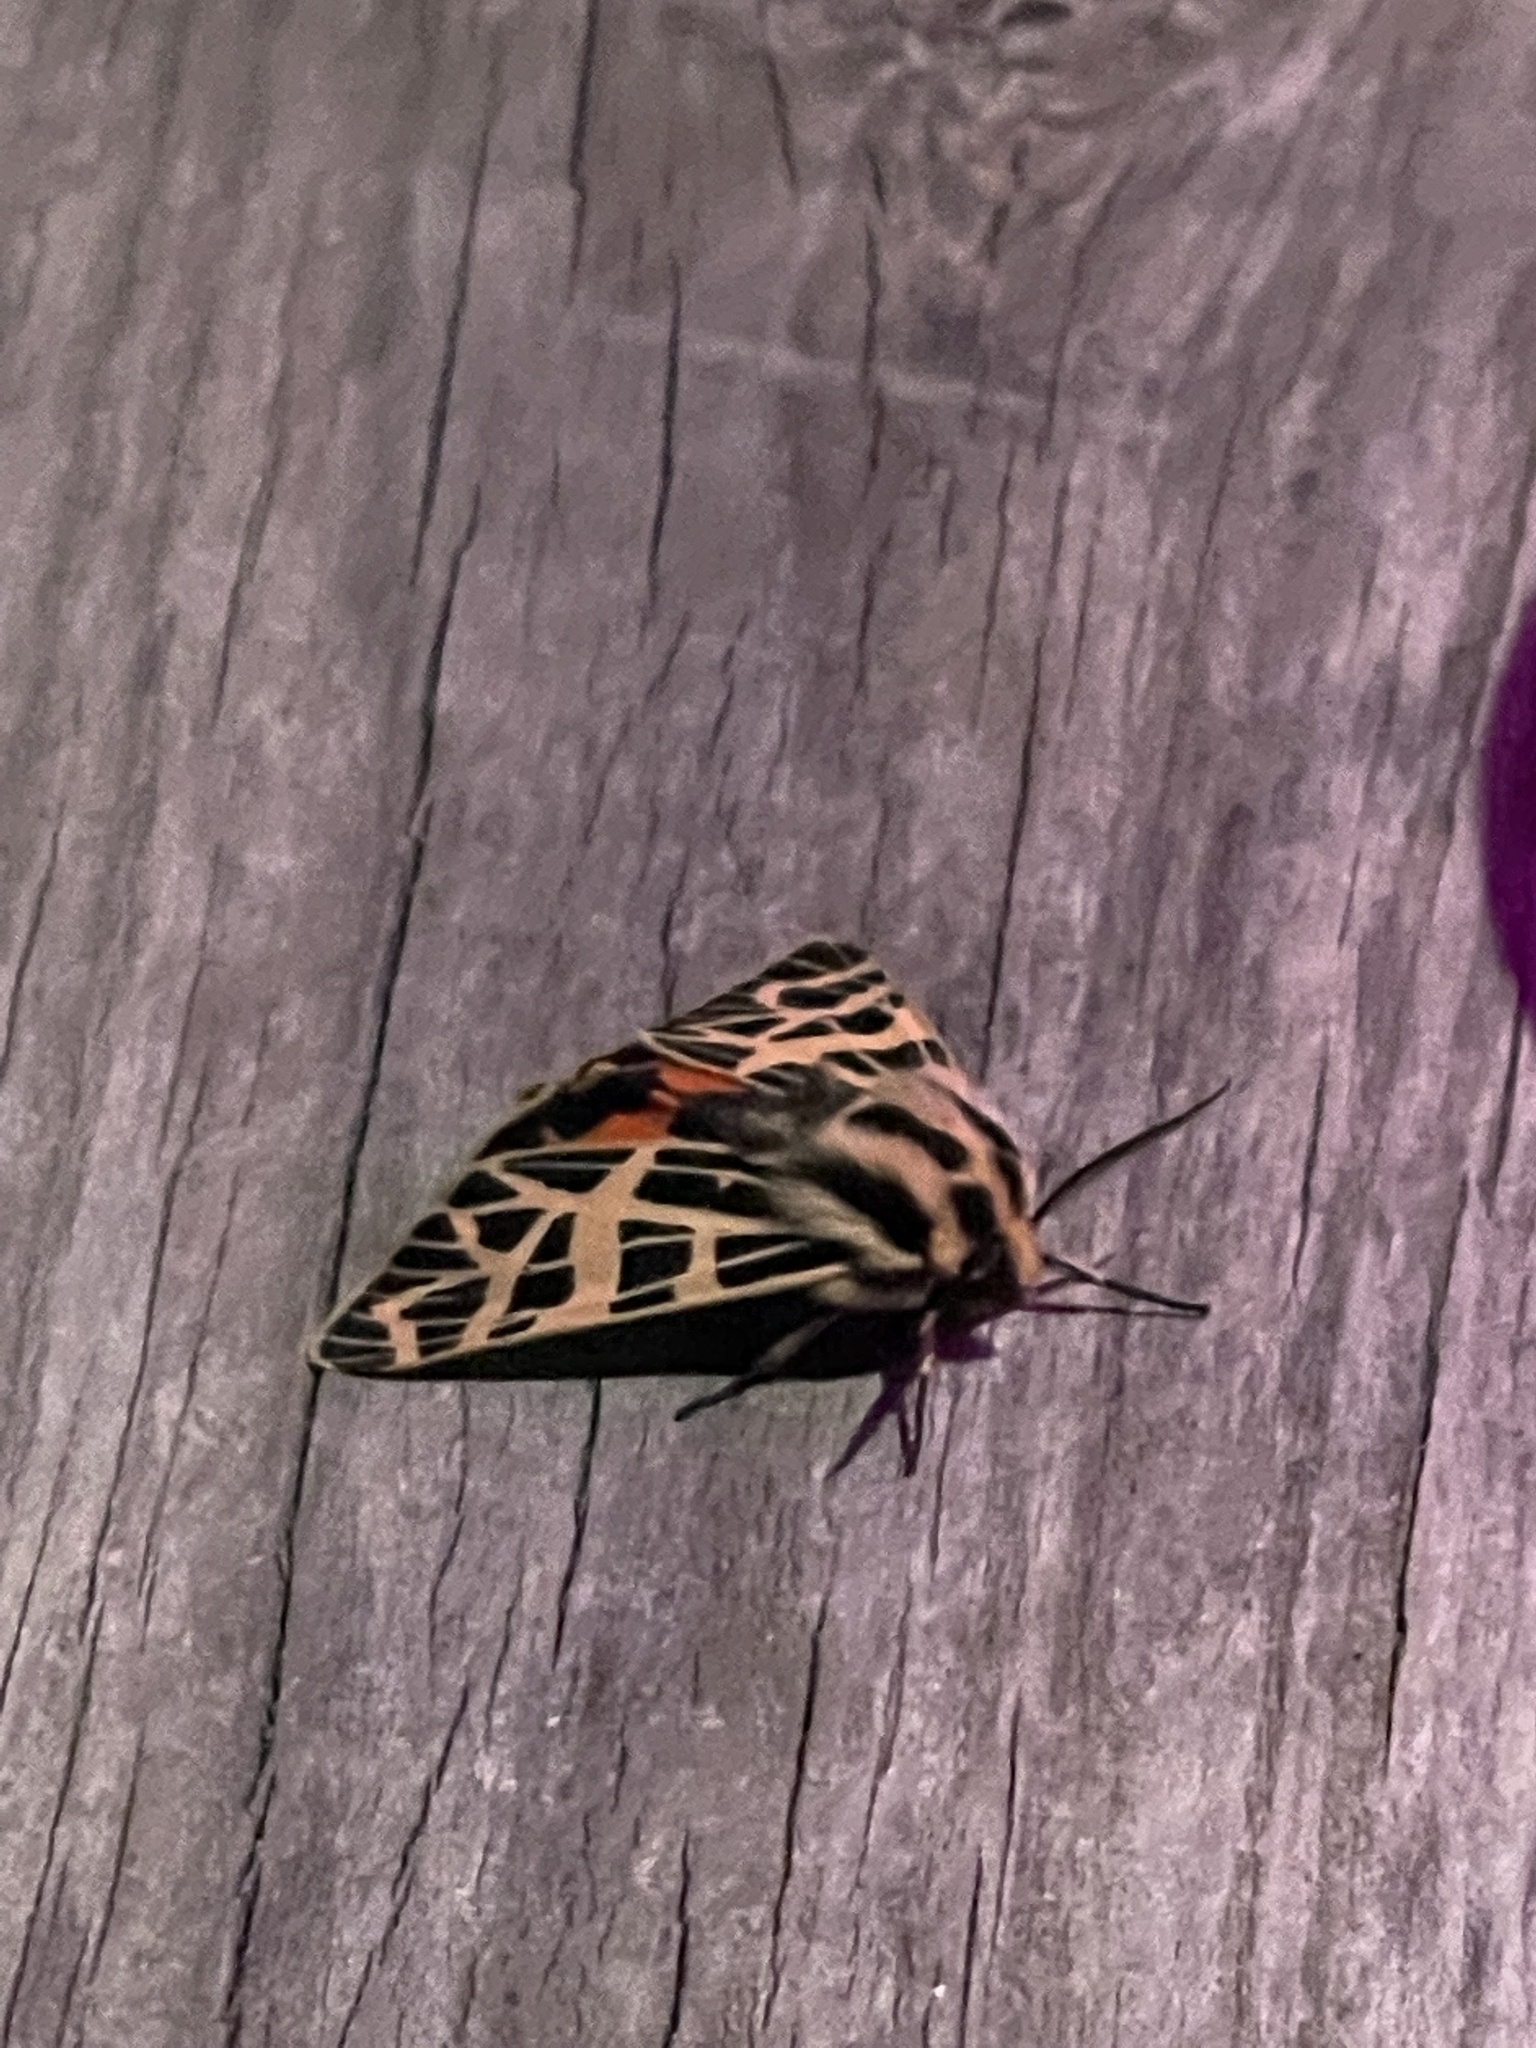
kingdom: Animalia
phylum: Arthropoda
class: Insecta
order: Lepidoptera
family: Erebidae
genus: Apantesis
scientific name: Apantesis
